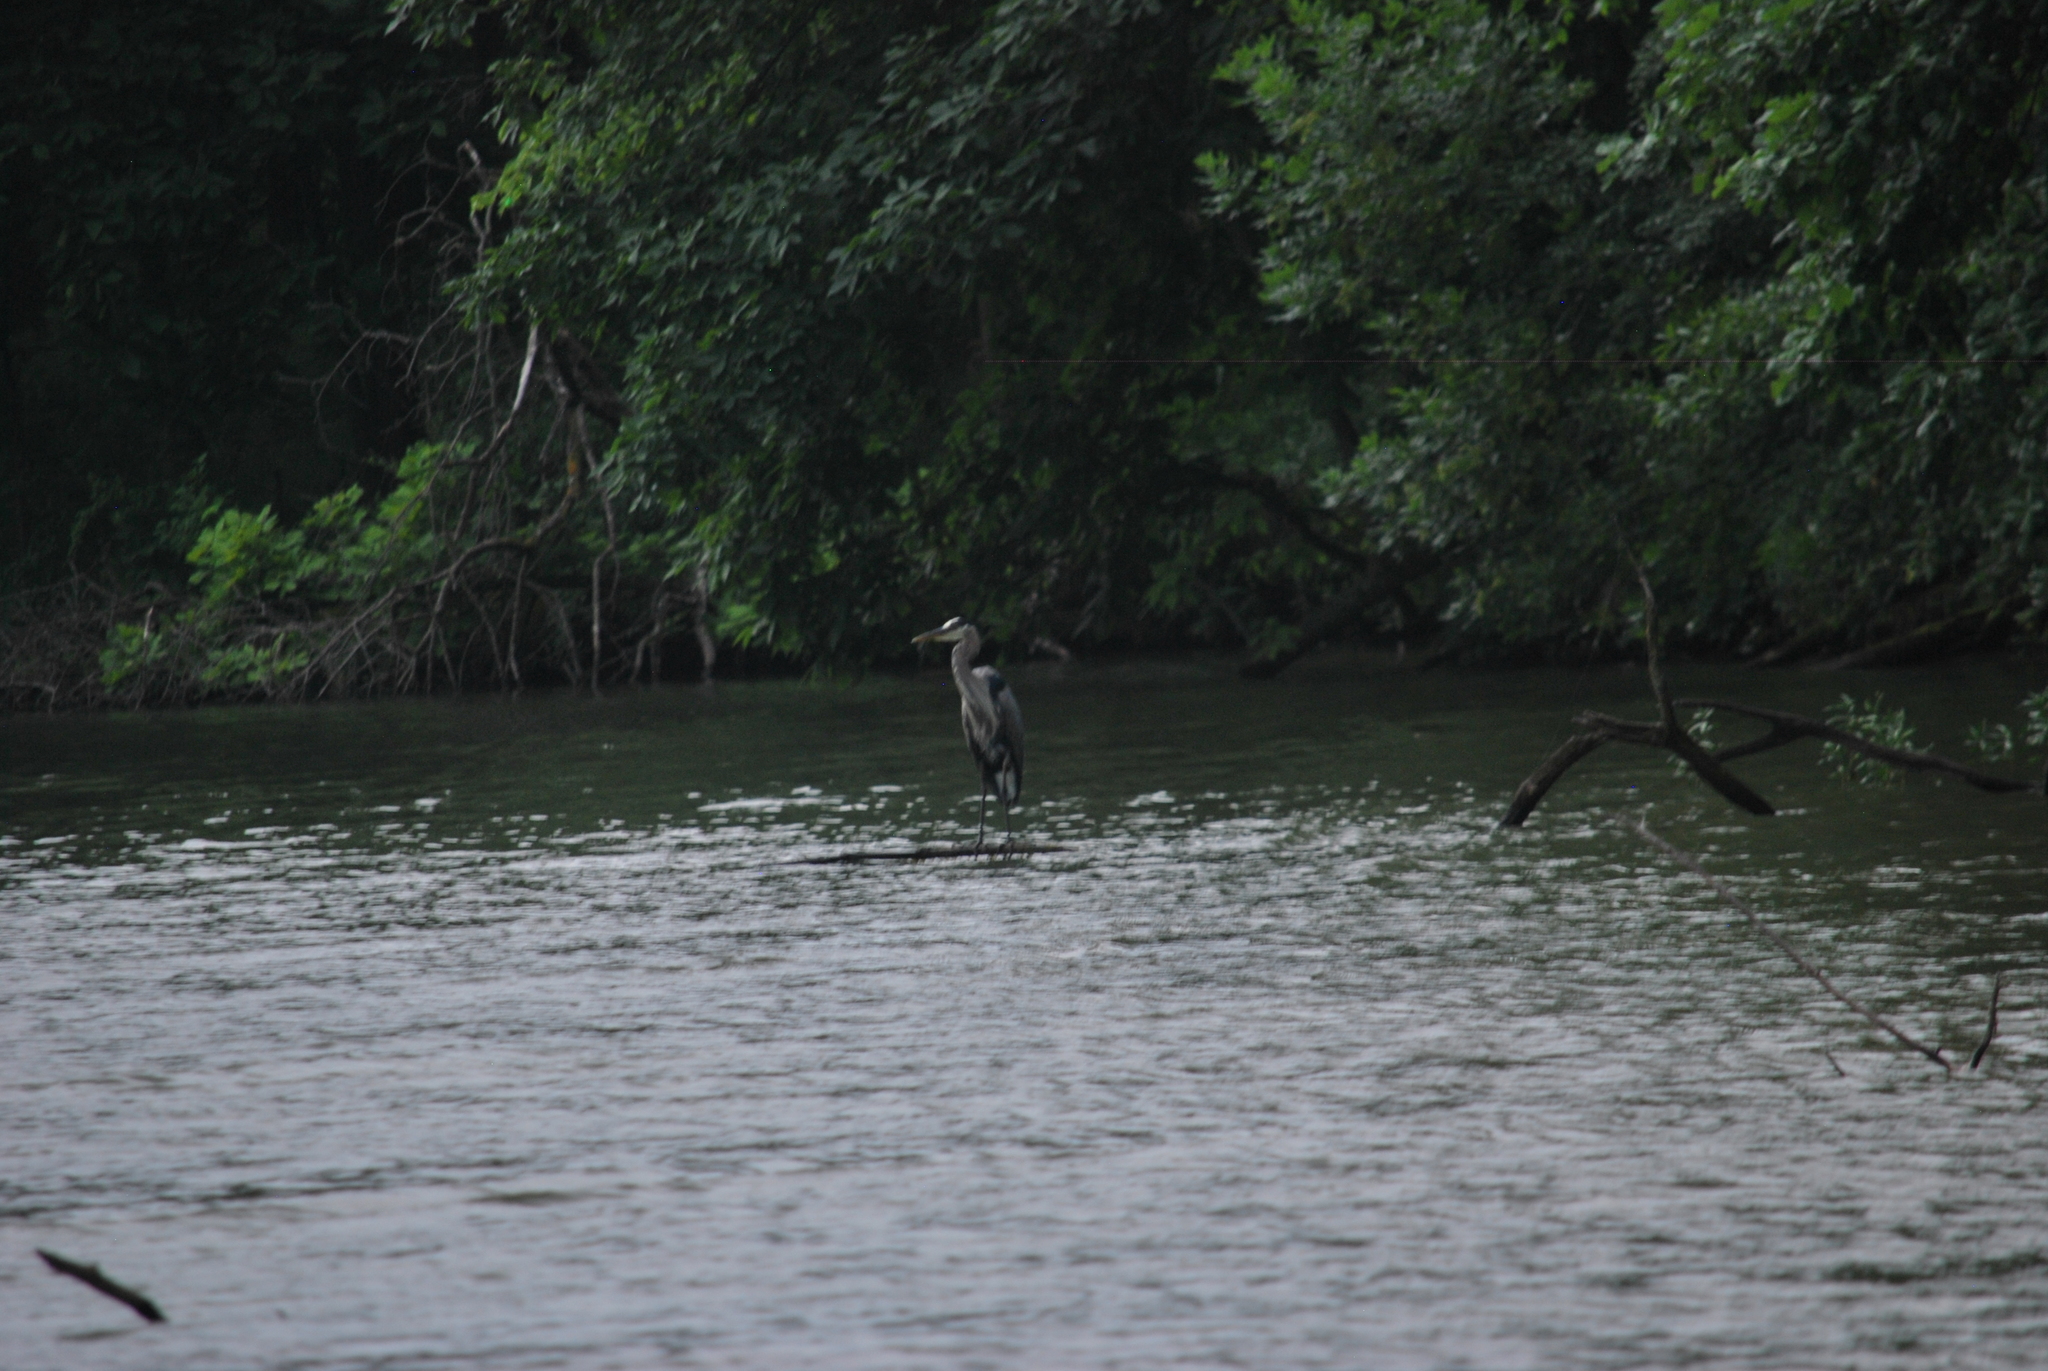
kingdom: Animalia
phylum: Chordata
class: Aves
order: Pelecaniformes
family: Ardeidae
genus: Ardea
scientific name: Ardea herodias
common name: Great blue heron
